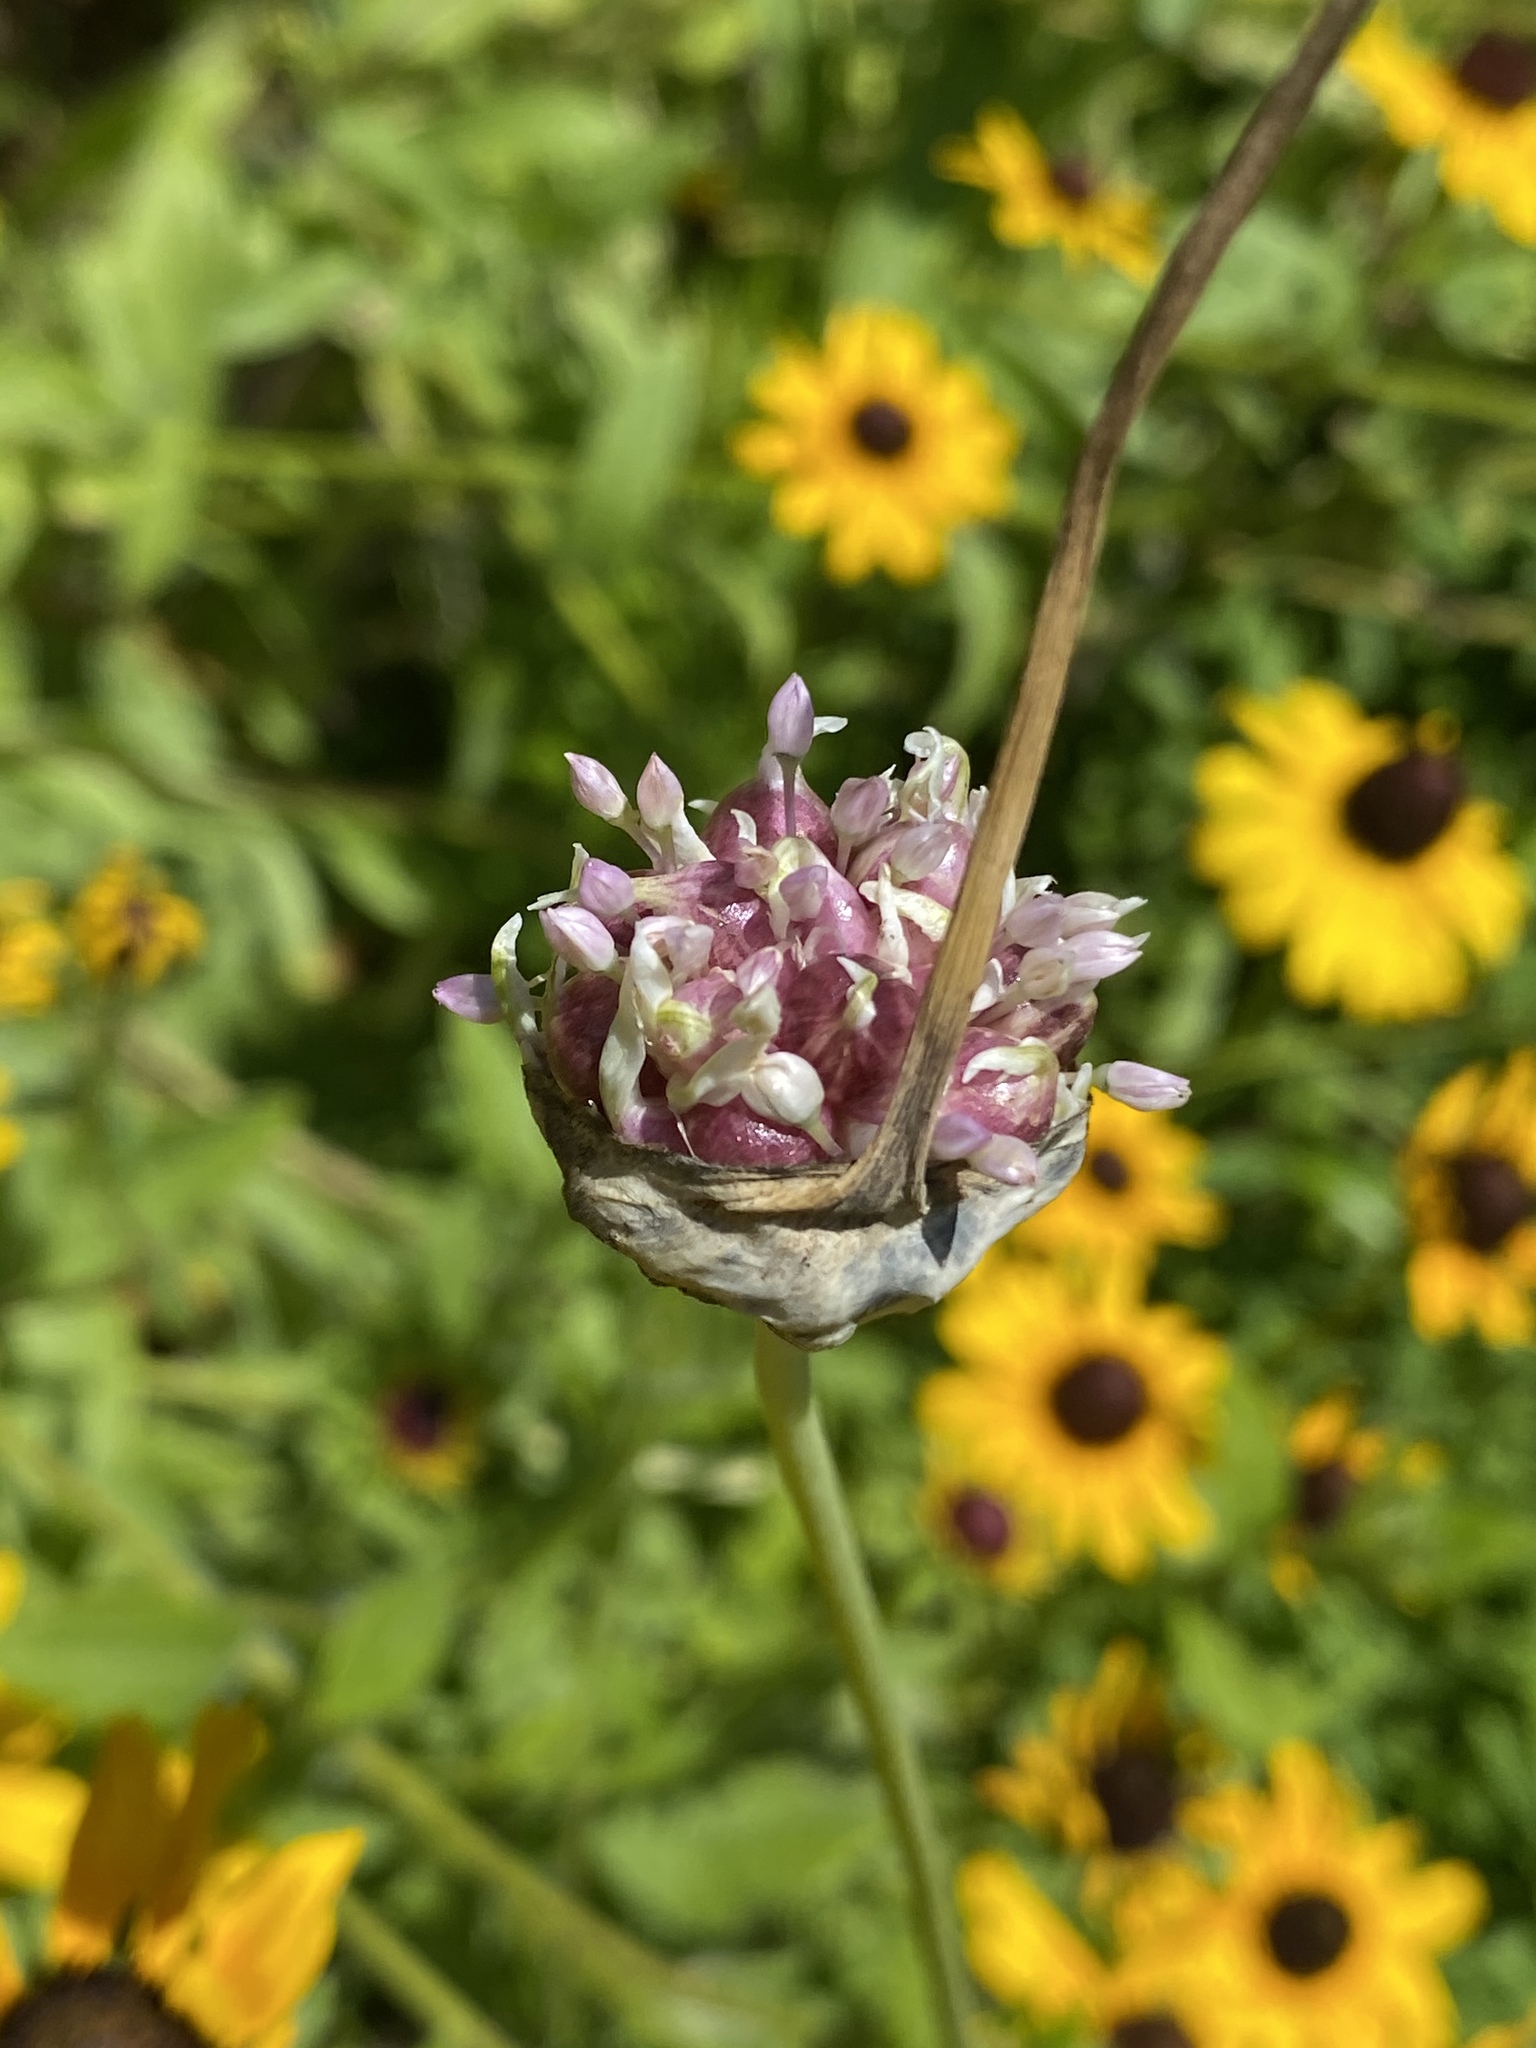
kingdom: Plantae
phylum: Tracheophyta
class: Liliopsida
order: Asparagales
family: Amaryllidaceae
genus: Allium
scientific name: Allium vineale
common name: Crow garlic
